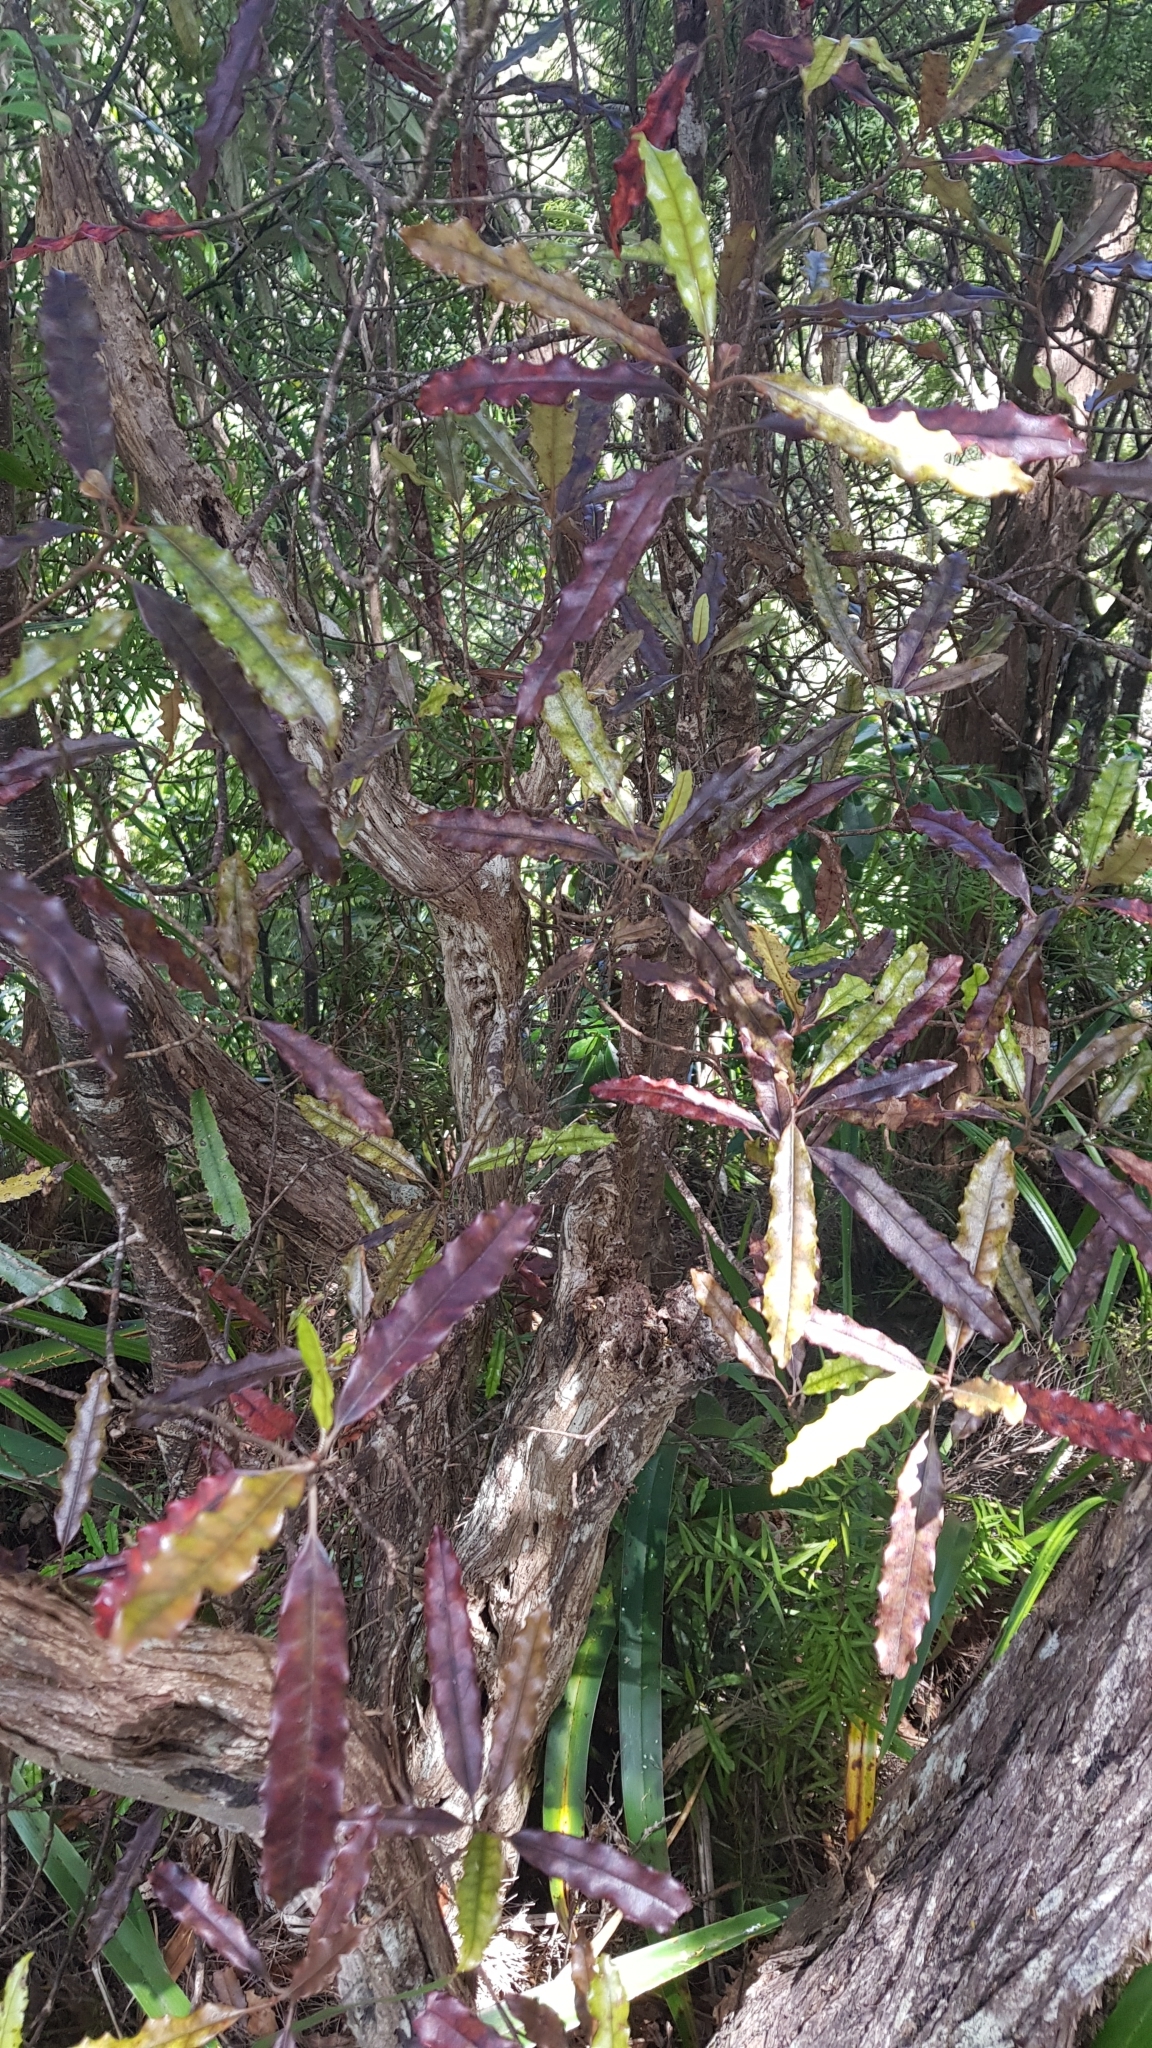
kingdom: Plantae
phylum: Tracheophyta
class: Magnoliopsida
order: Paracryphiales
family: Paracryphiaceae
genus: Quintinia
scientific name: Quintinia serrata
